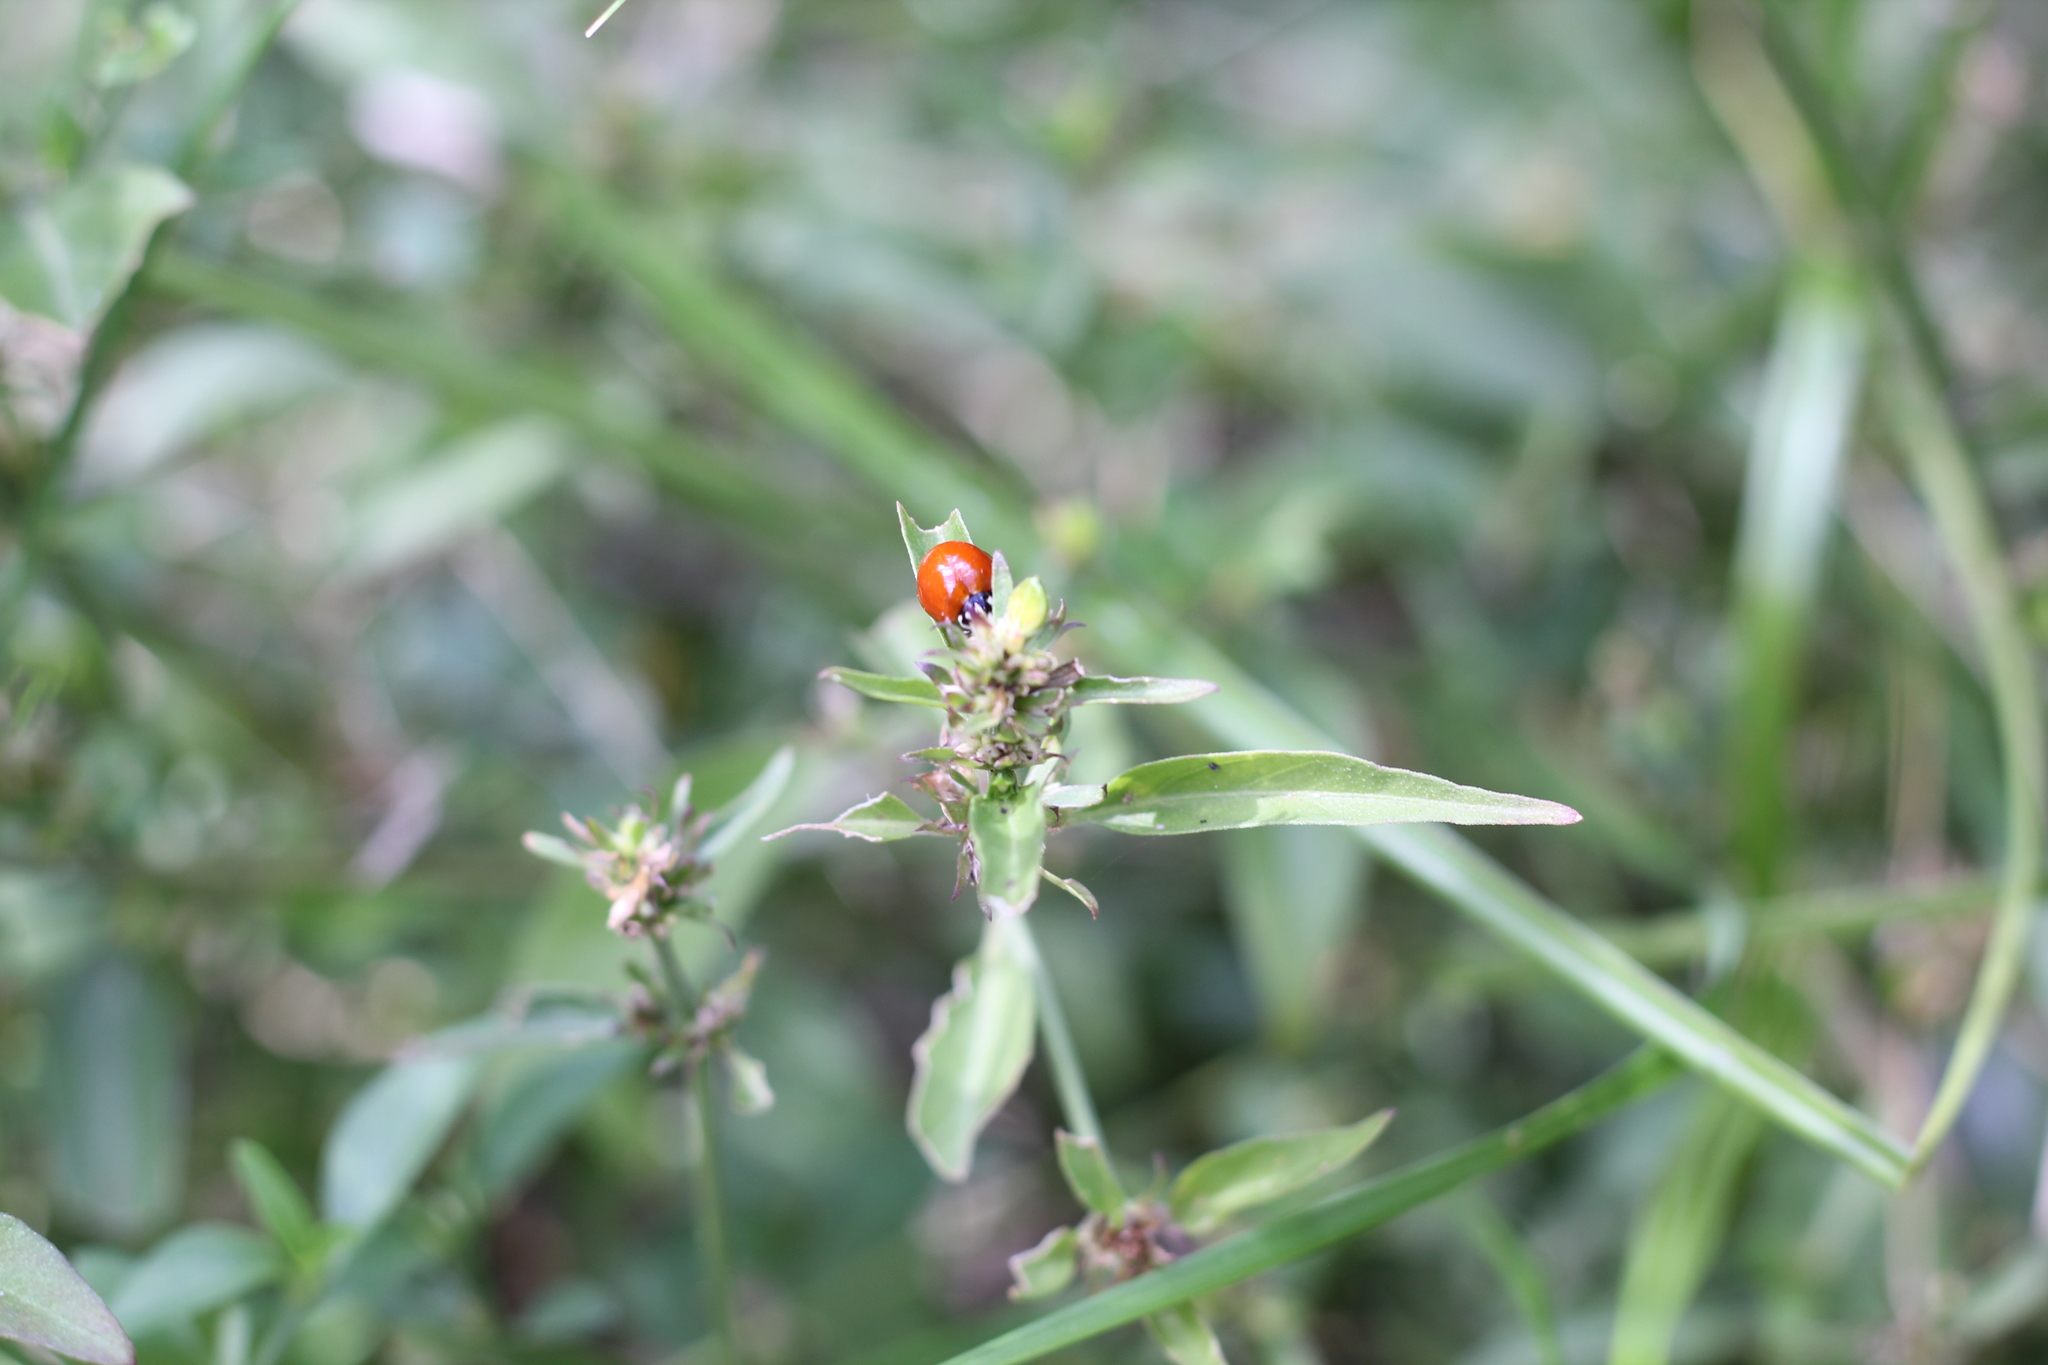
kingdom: Animalia
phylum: Arthropoda
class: Insecta
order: Coleoptera
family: Coccinellidae
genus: Cycloneda
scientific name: Cycloneda sanguinea
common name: Ladybird beetle
